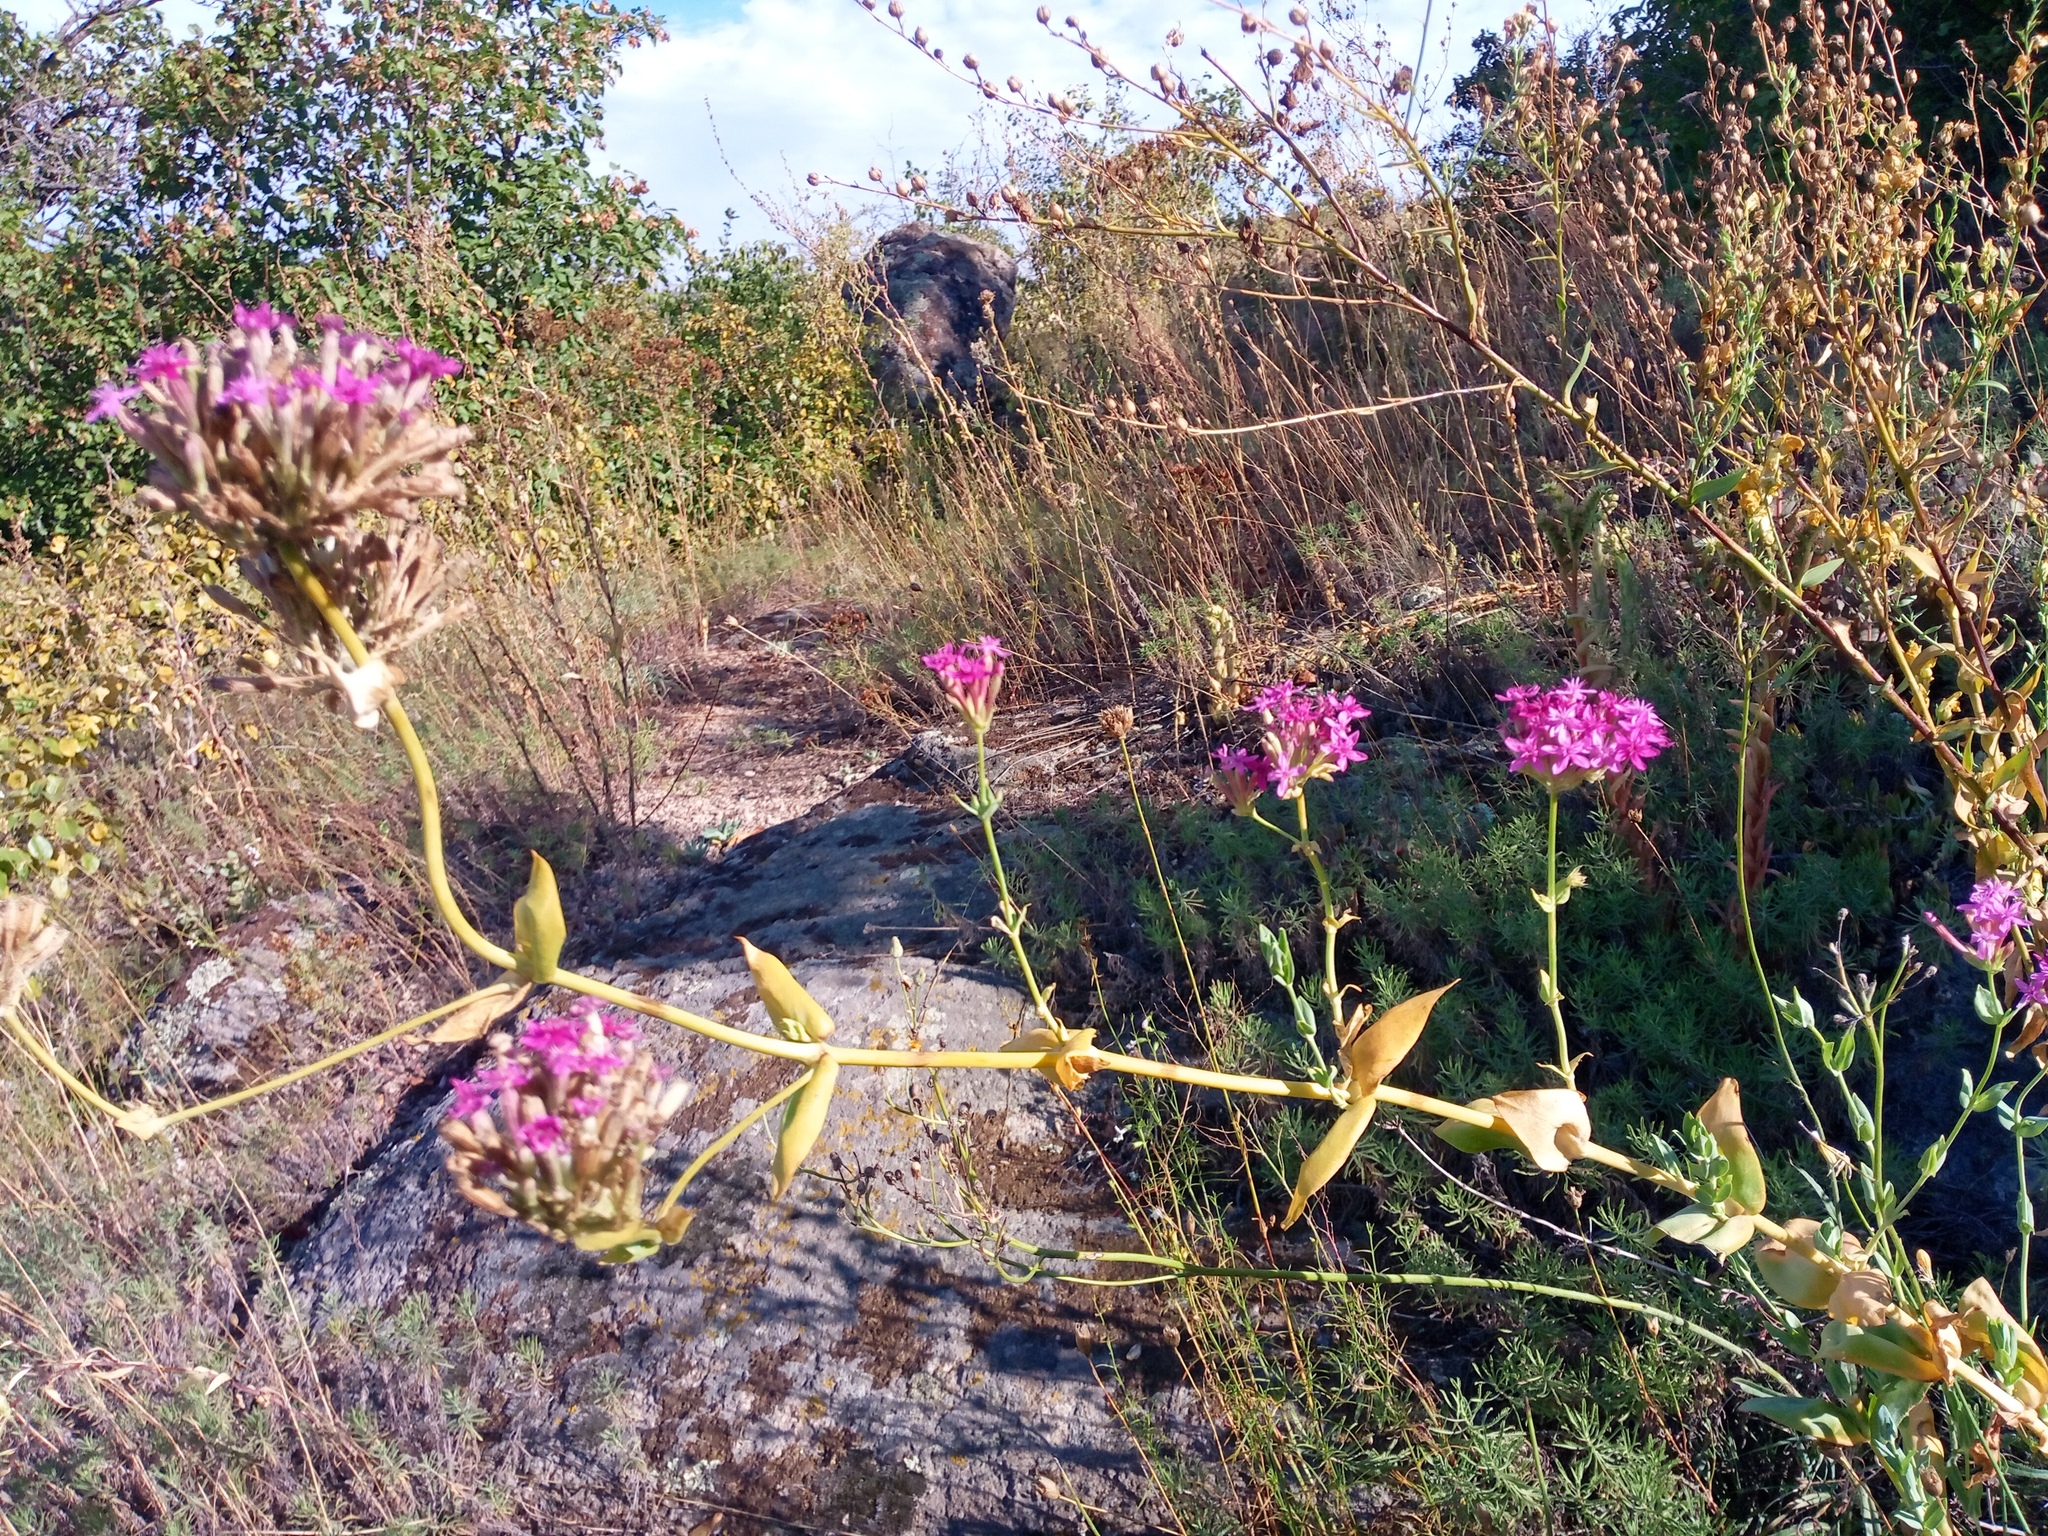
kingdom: Plantae
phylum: Tracheophyta
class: Magnoliopsida
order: Caryophyllales
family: Caryophyllaceae
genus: Atocion
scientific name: Atocion compactum
